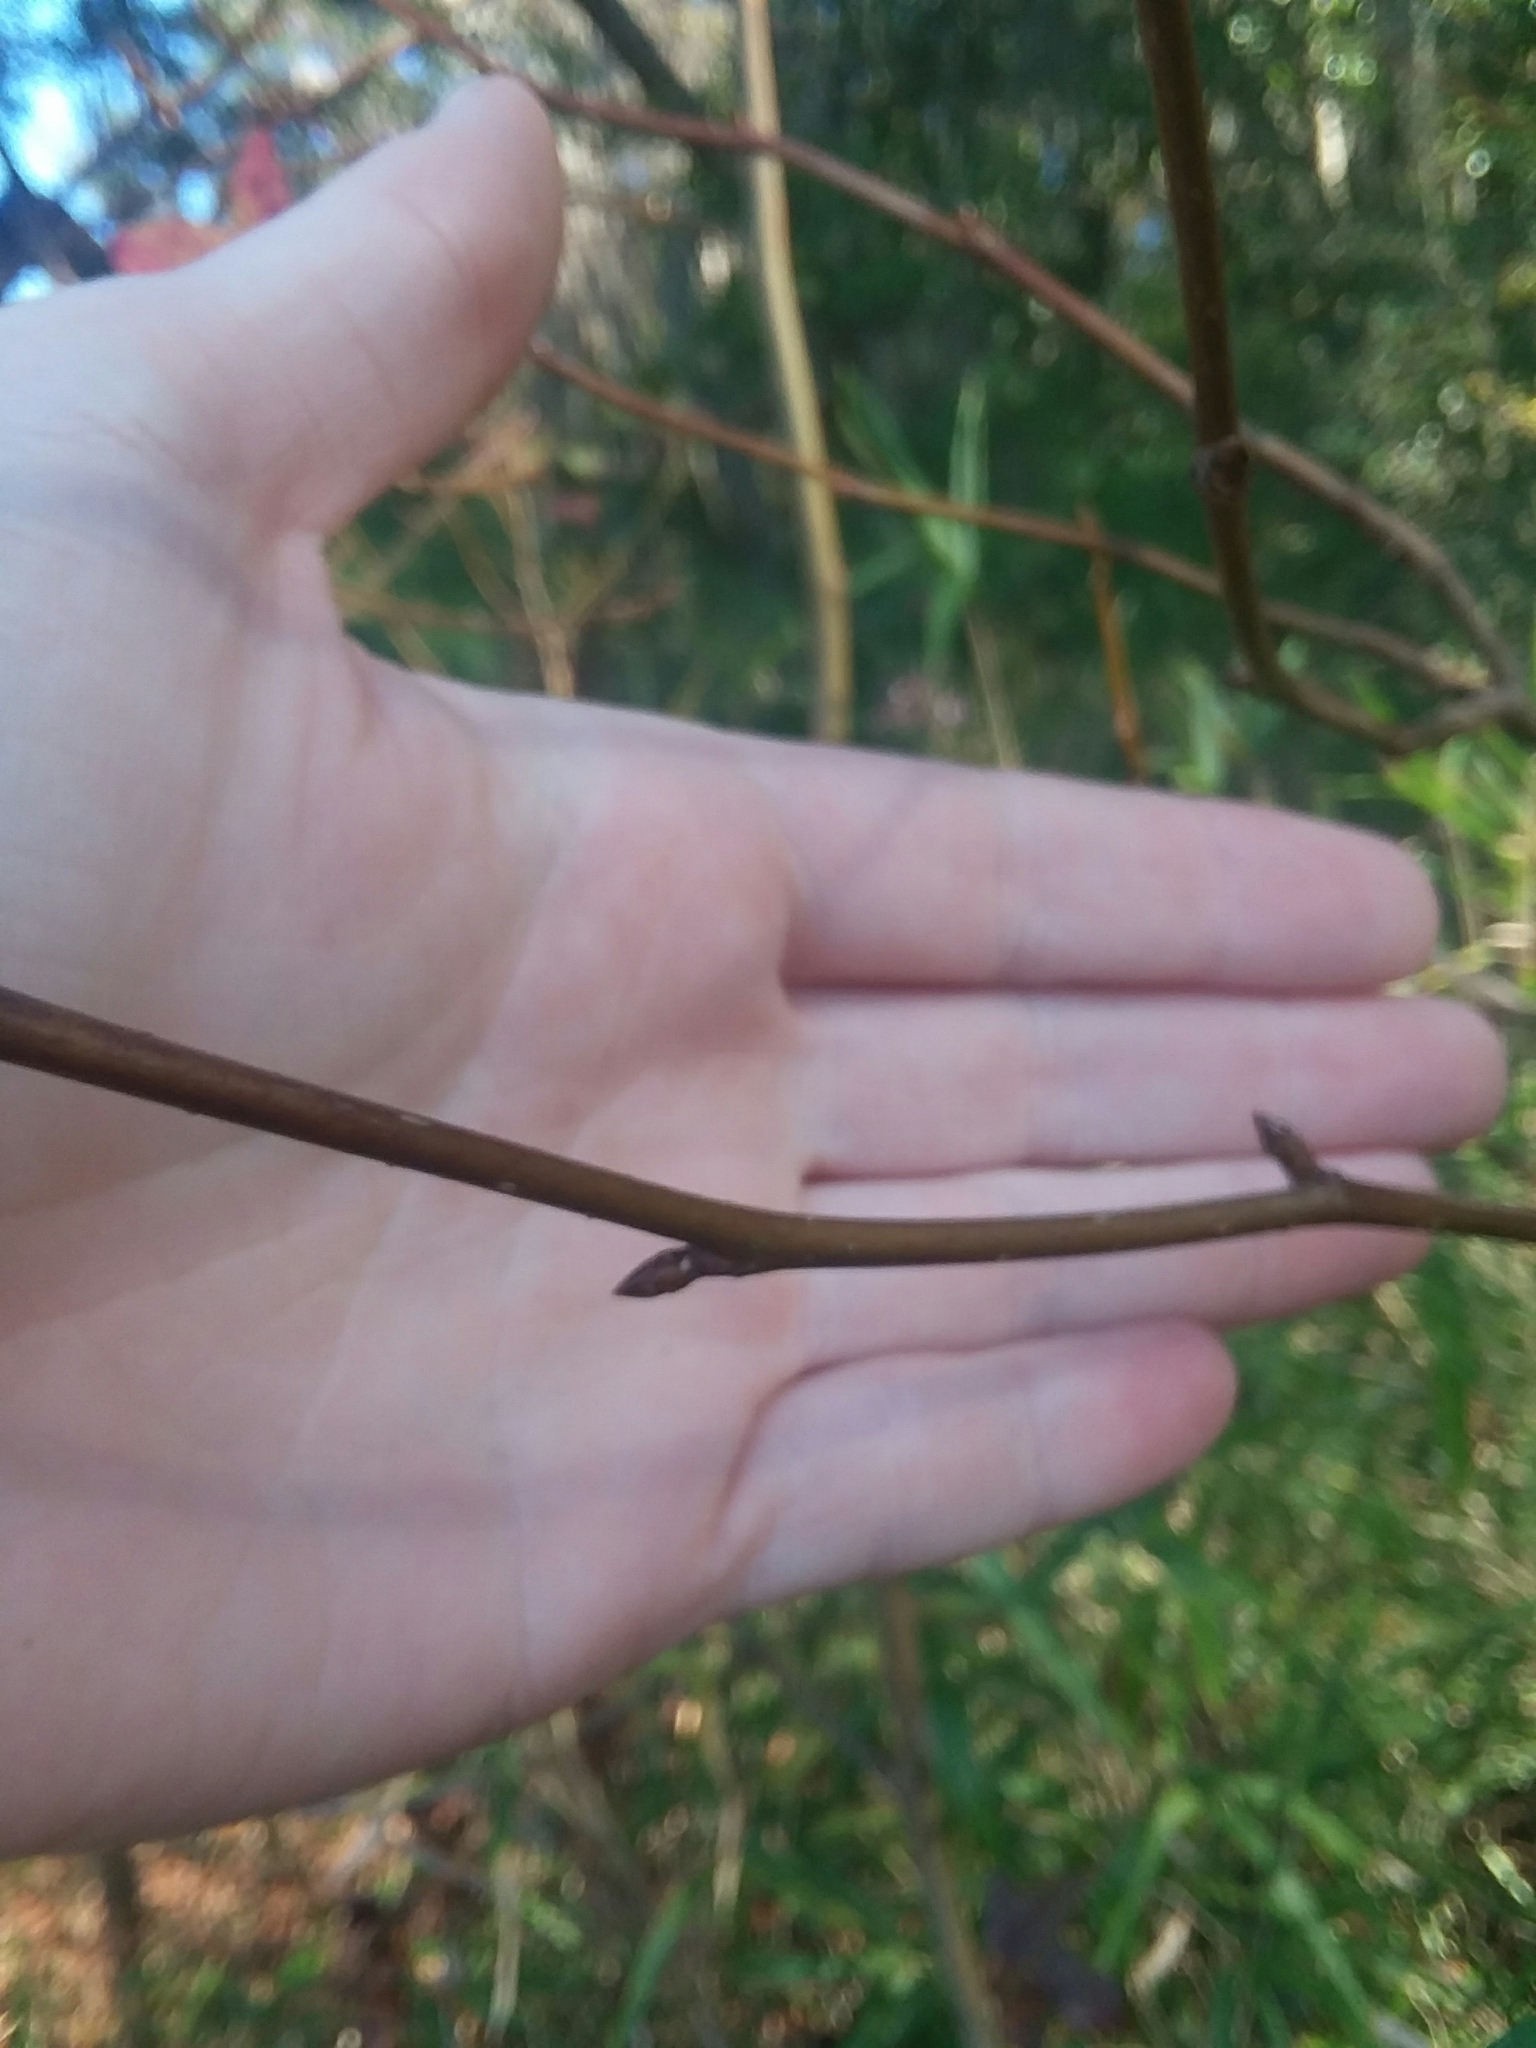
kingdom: Plantae
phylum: Tracheophyta
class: Magnoliopsida
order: Saxifragales
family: Altingiaceae
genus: Liquidambar
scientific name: Liquidambar styraciflua
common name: Sweet gum
